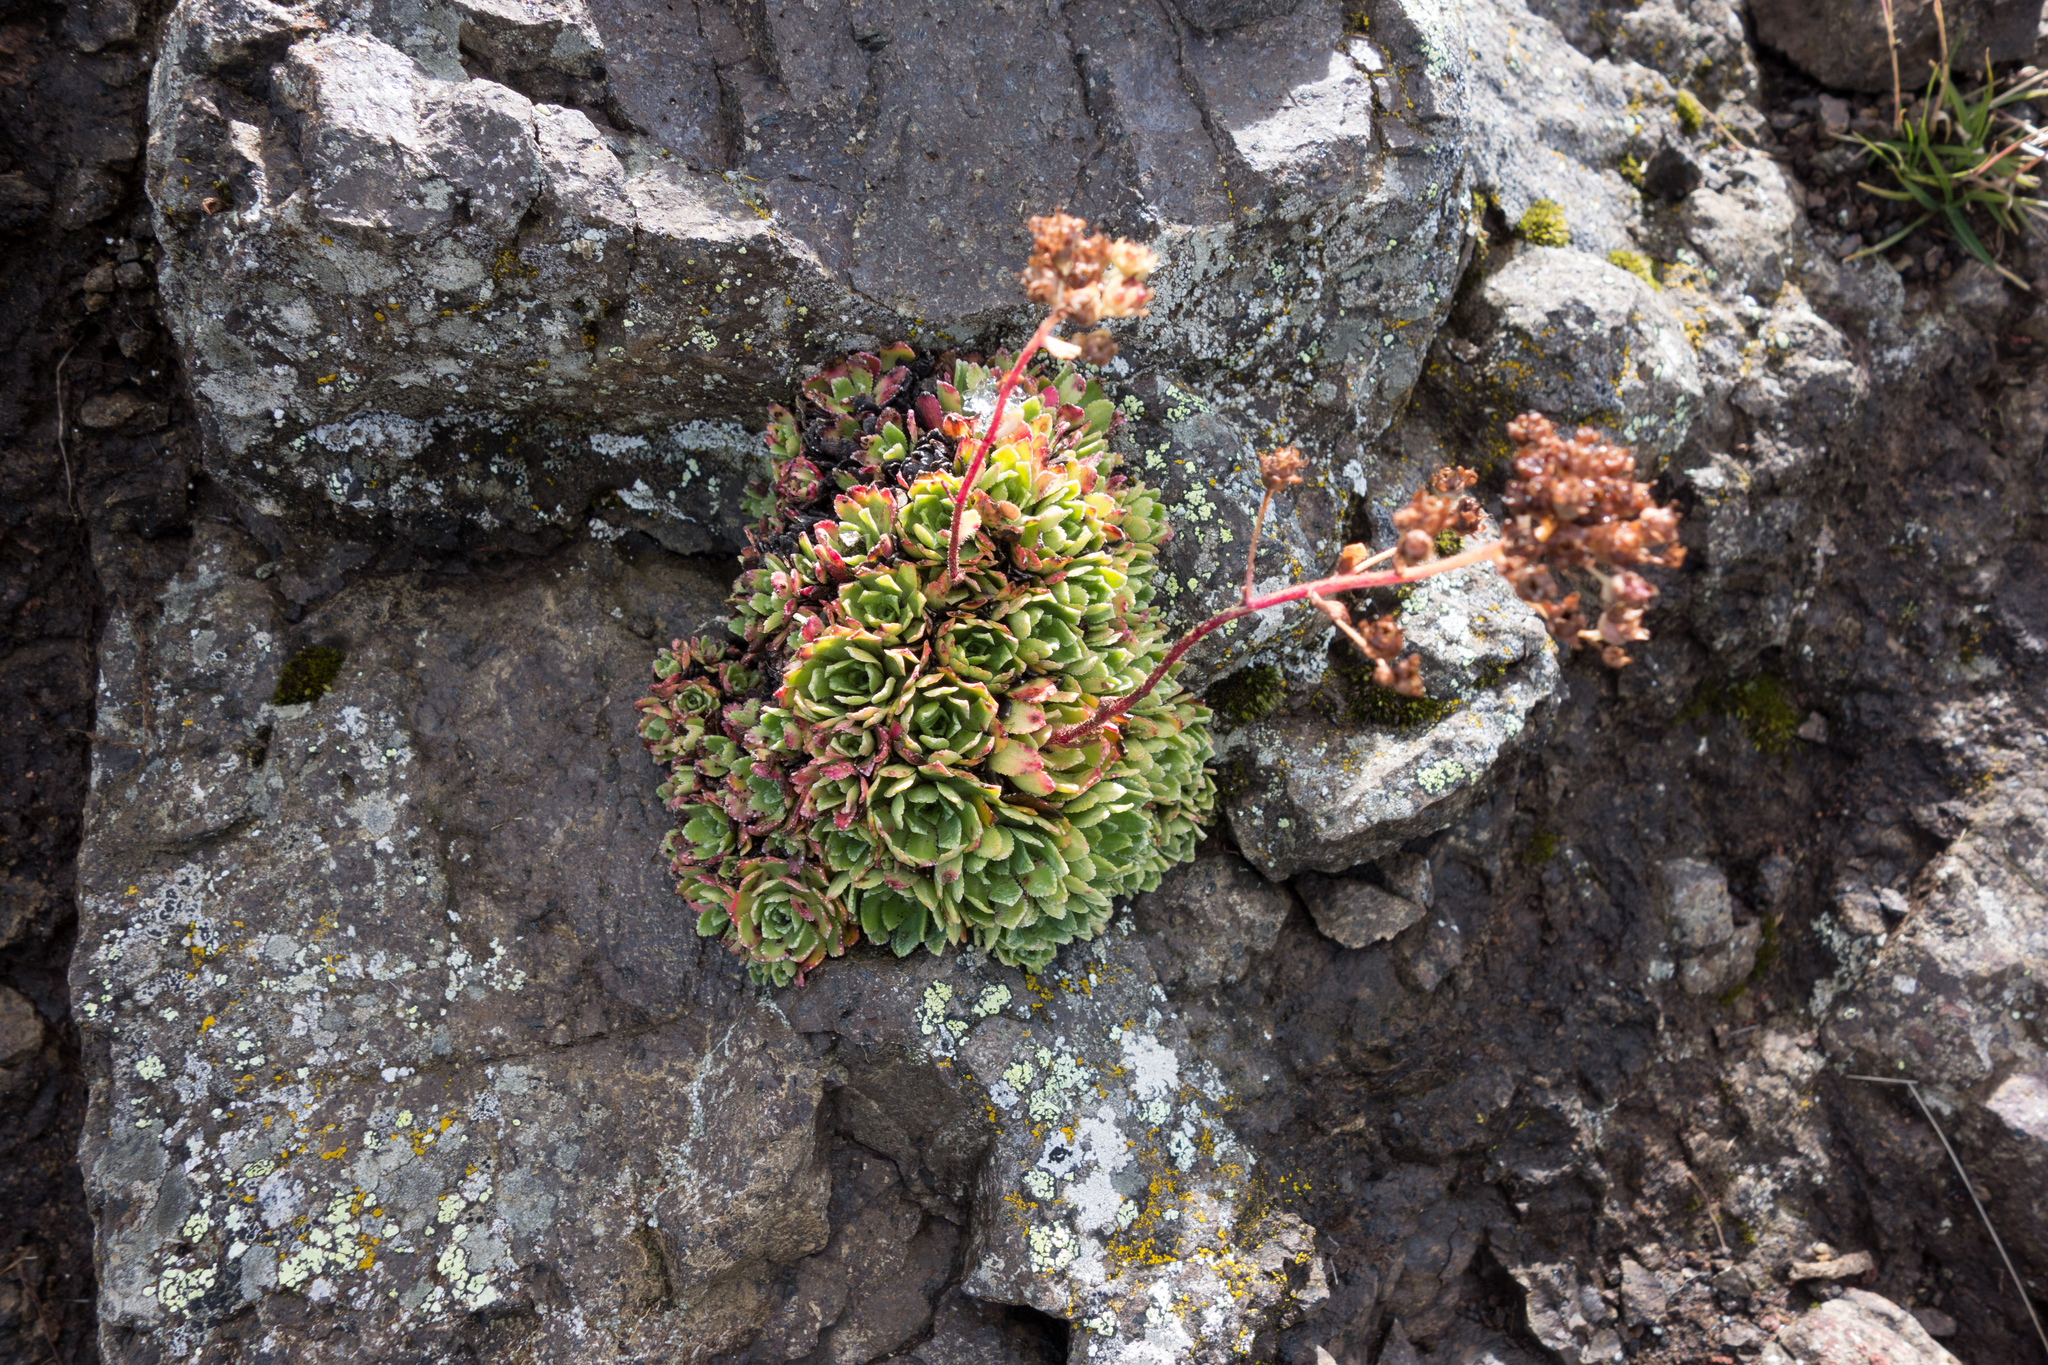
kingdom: Plantae
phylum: Tracheophyta
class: Magnoliopsida
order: Saxifragales
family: Saxifragaceae
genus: Saxifraga
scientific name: Saxifraga paniculata
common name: Livelong saxifrage
